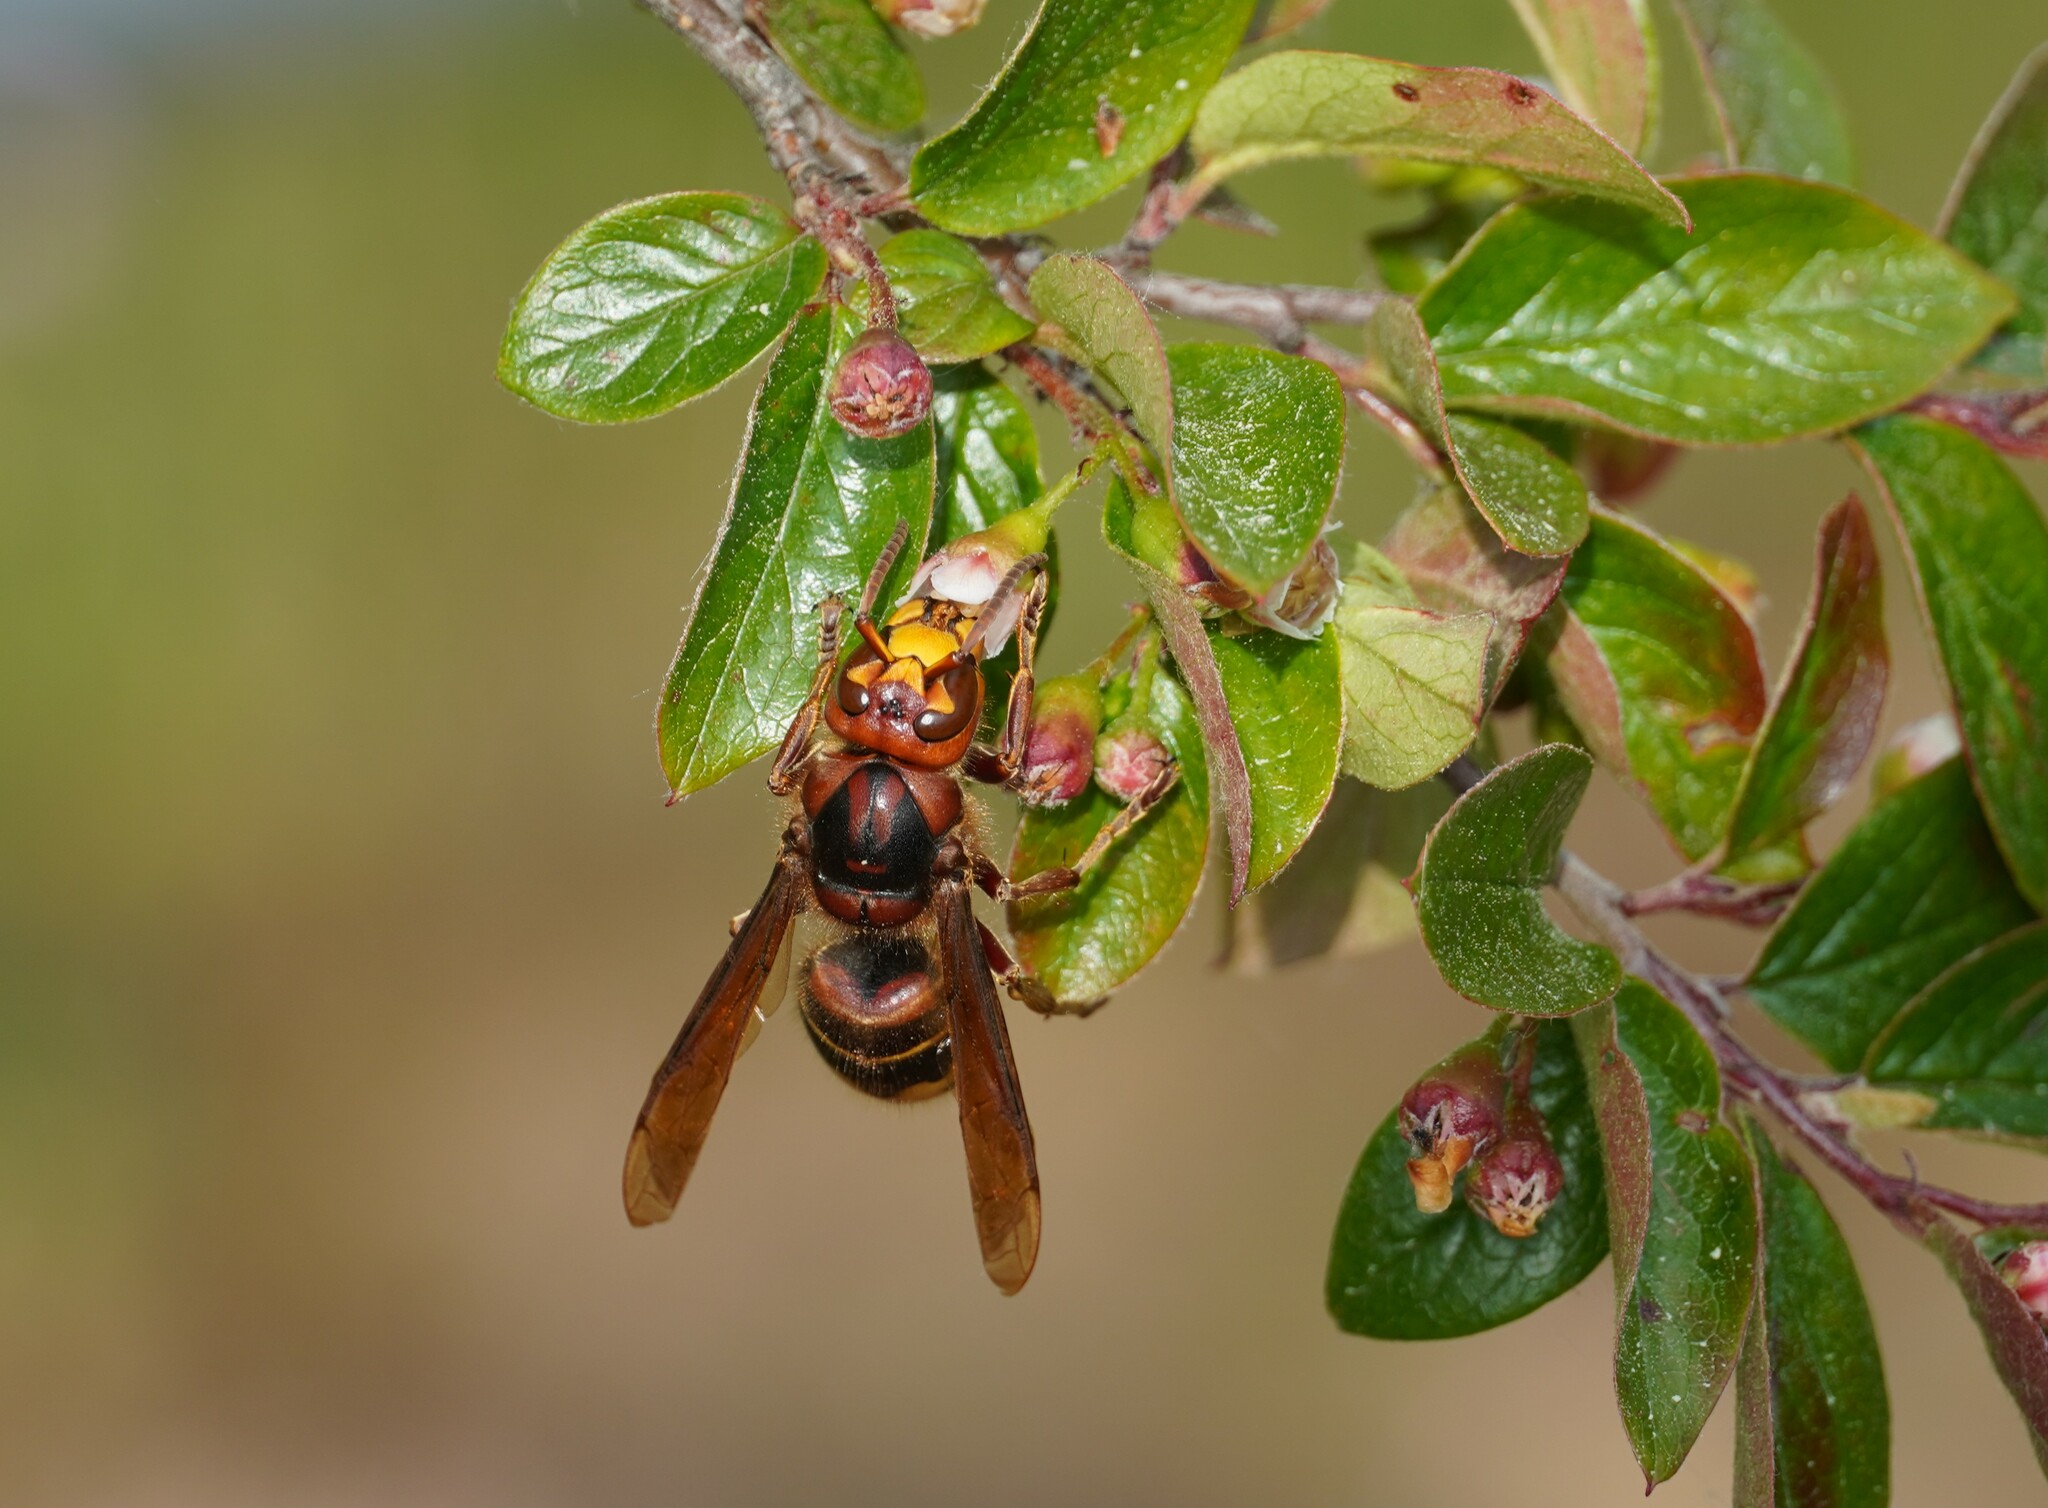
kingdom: Animalia
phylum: Arthropoda
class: Insecta
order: Hymenoptera
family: Vespidae
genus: Vespa
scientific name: Vespa crabro
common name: Hornet
